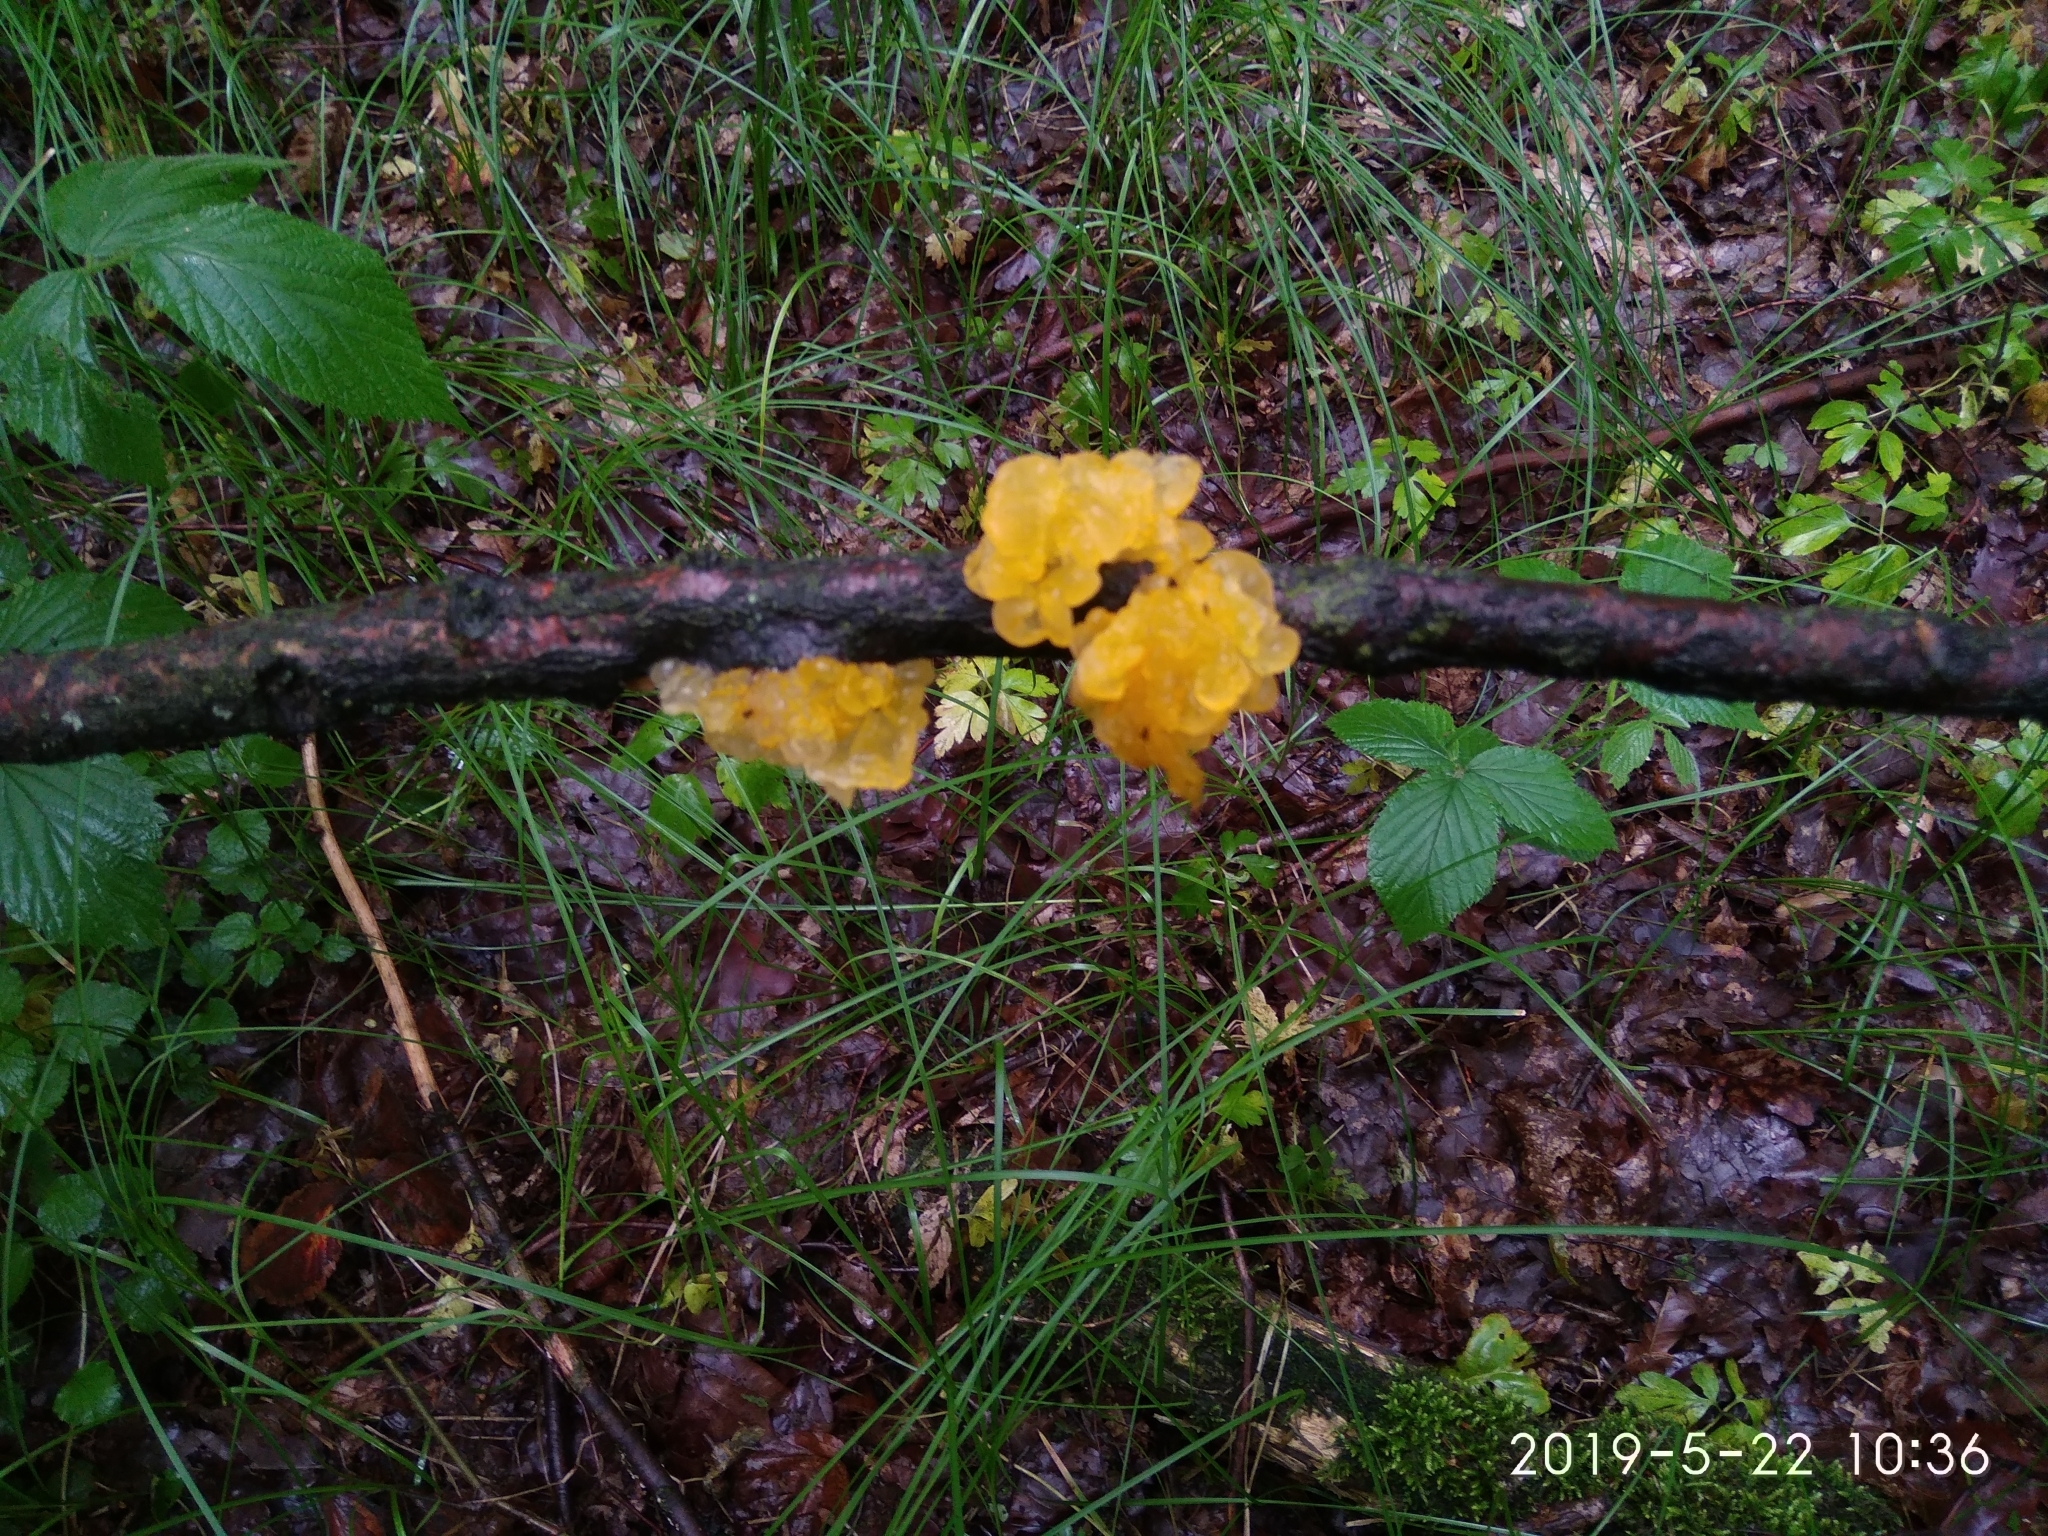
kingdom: Fungi
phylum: Basidiomycota
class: Tremellomycetes
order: Tremellales
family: Tremellaceae
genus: Tremella
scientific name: Tremella mesenterica
